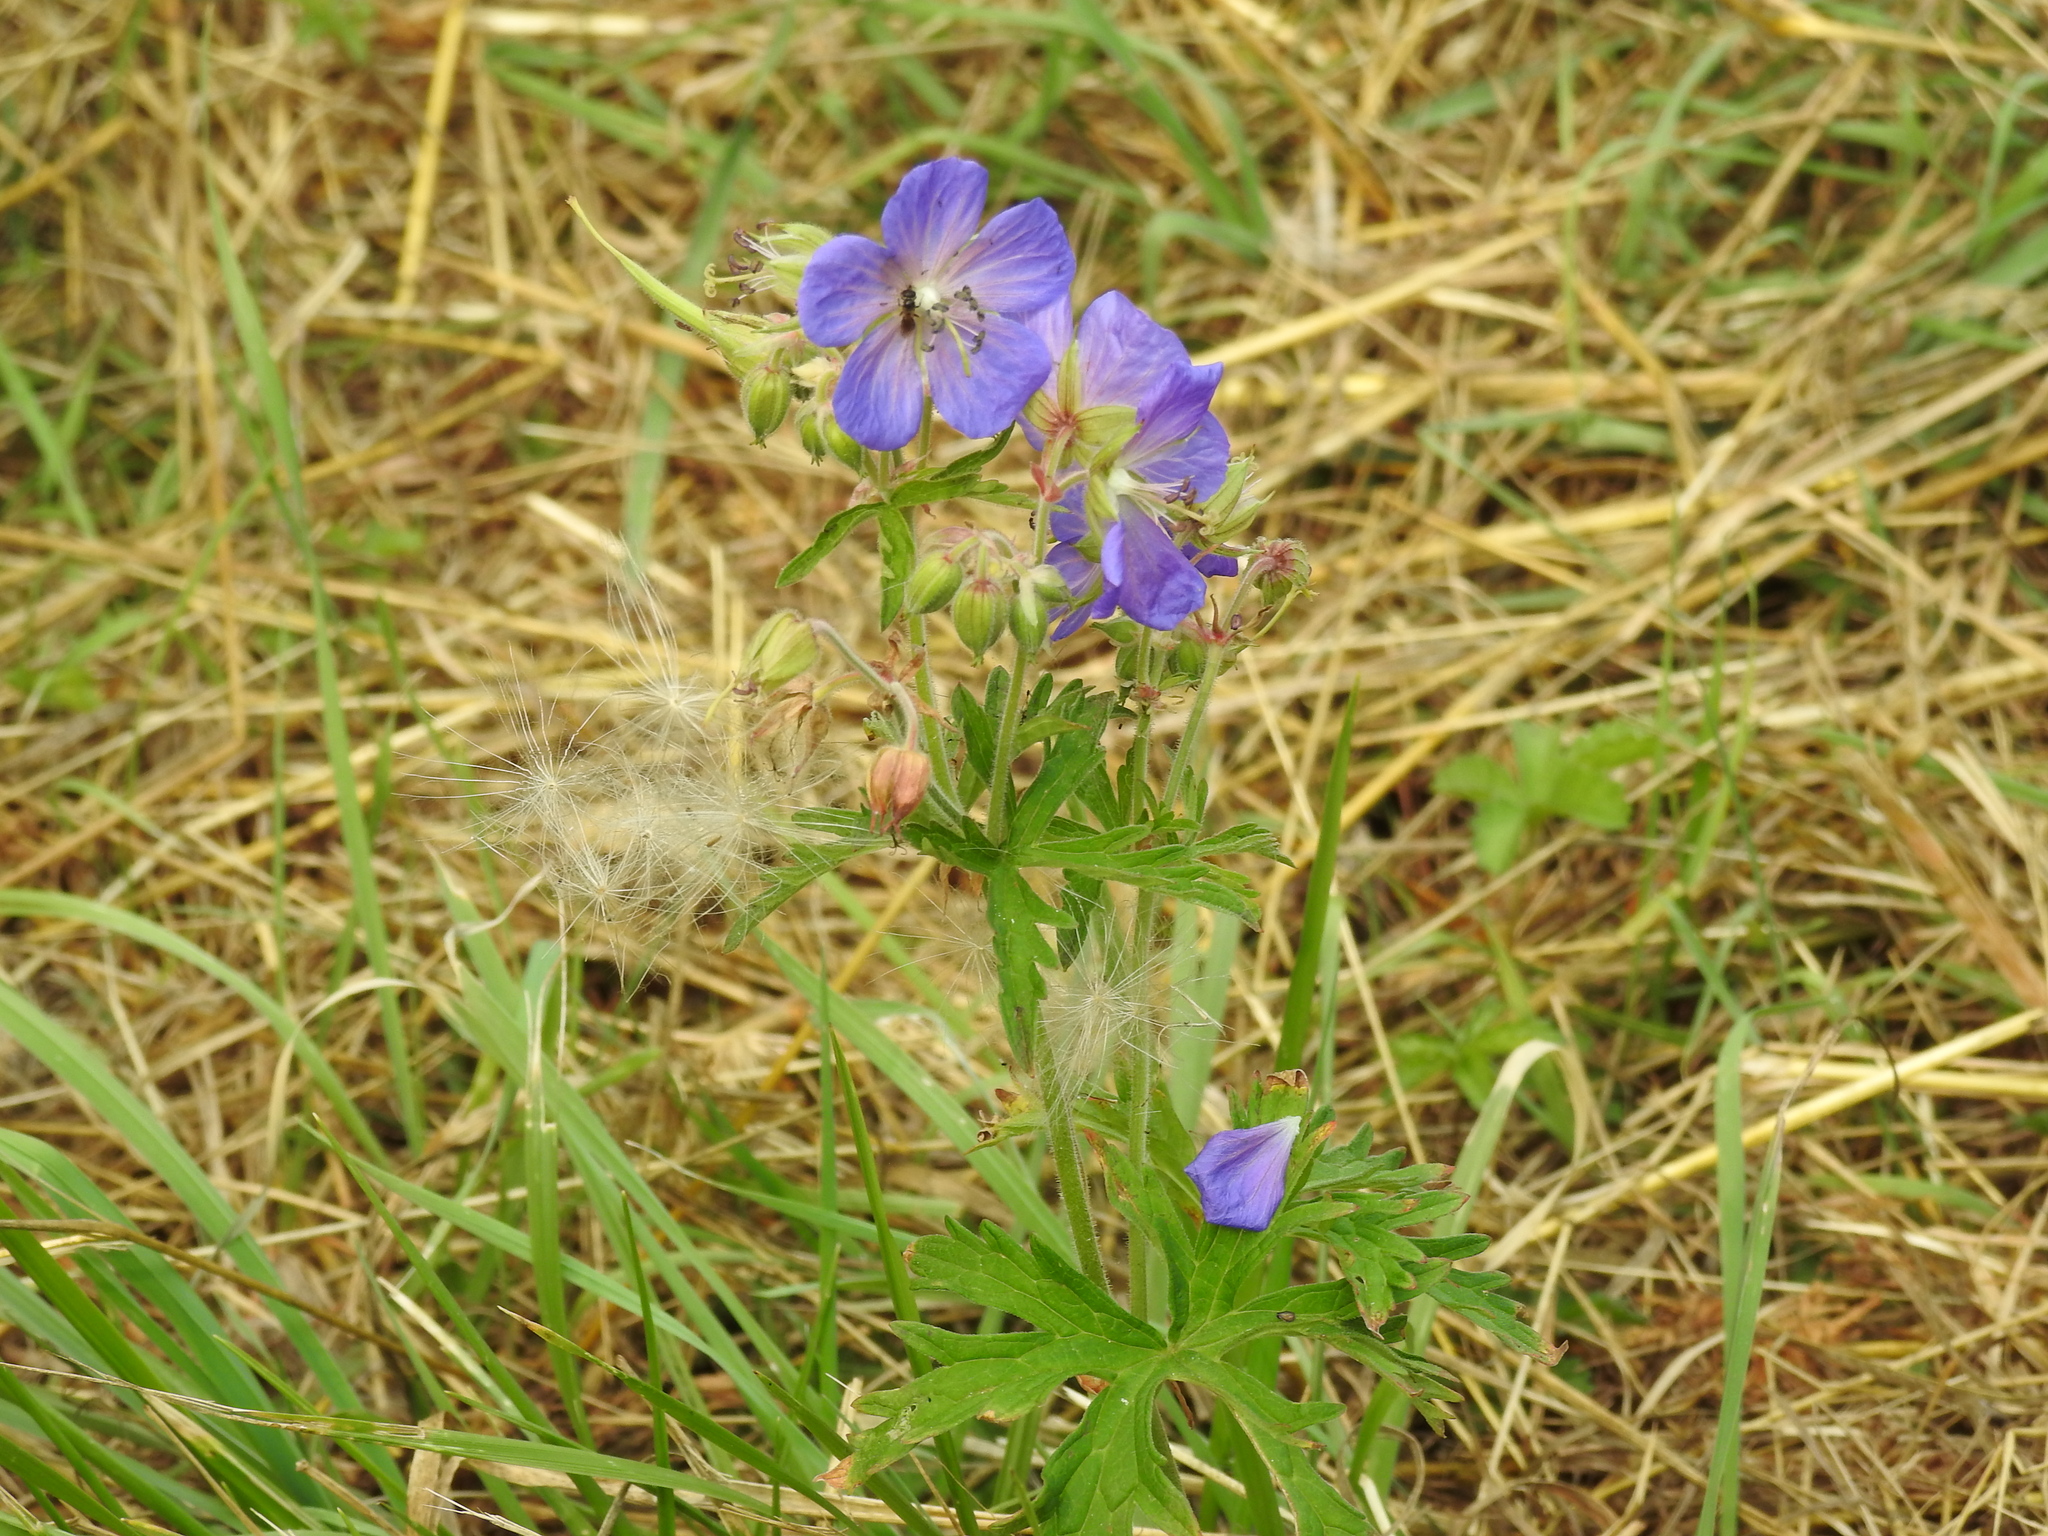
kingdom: Plantae
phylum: Tracheophyta
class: Magnoliopsida
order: Geraniales
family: Geraniaceae
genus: Geranium
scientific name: Geranium pratense
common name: Meadow crane's-bill
